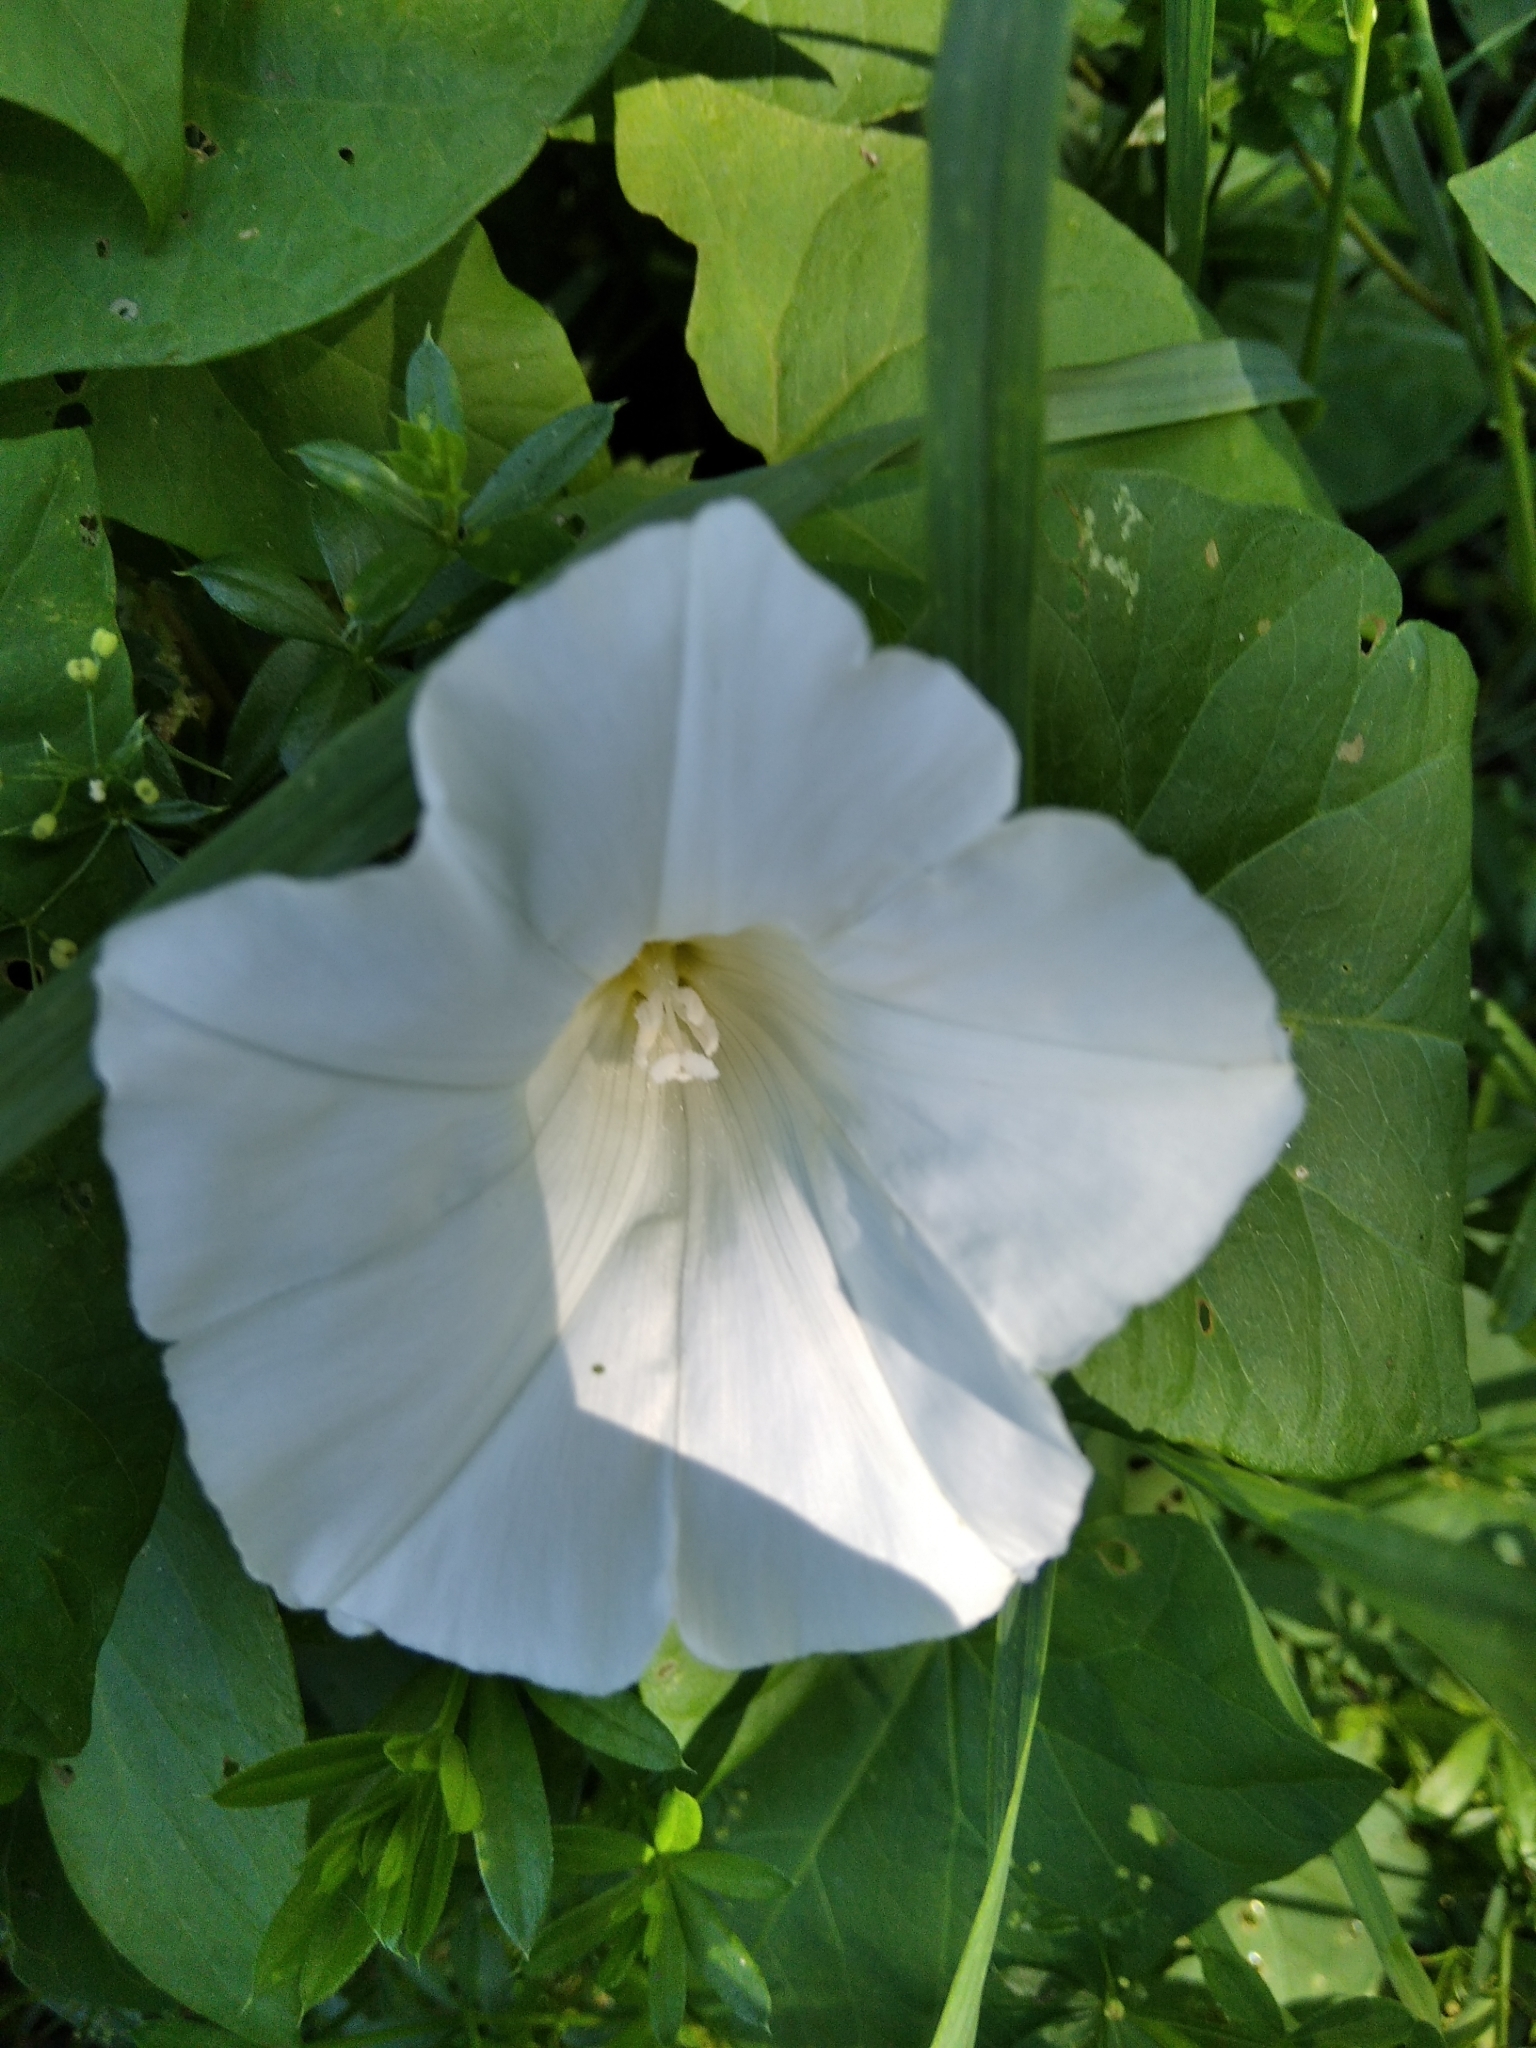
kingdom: Plantae
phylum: Tracheophyta
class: Magnoliopsida
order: Solanales
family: Convolvulaceae
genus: Calystegia
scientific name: Calystegia sepium
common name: Hedge bindweed
